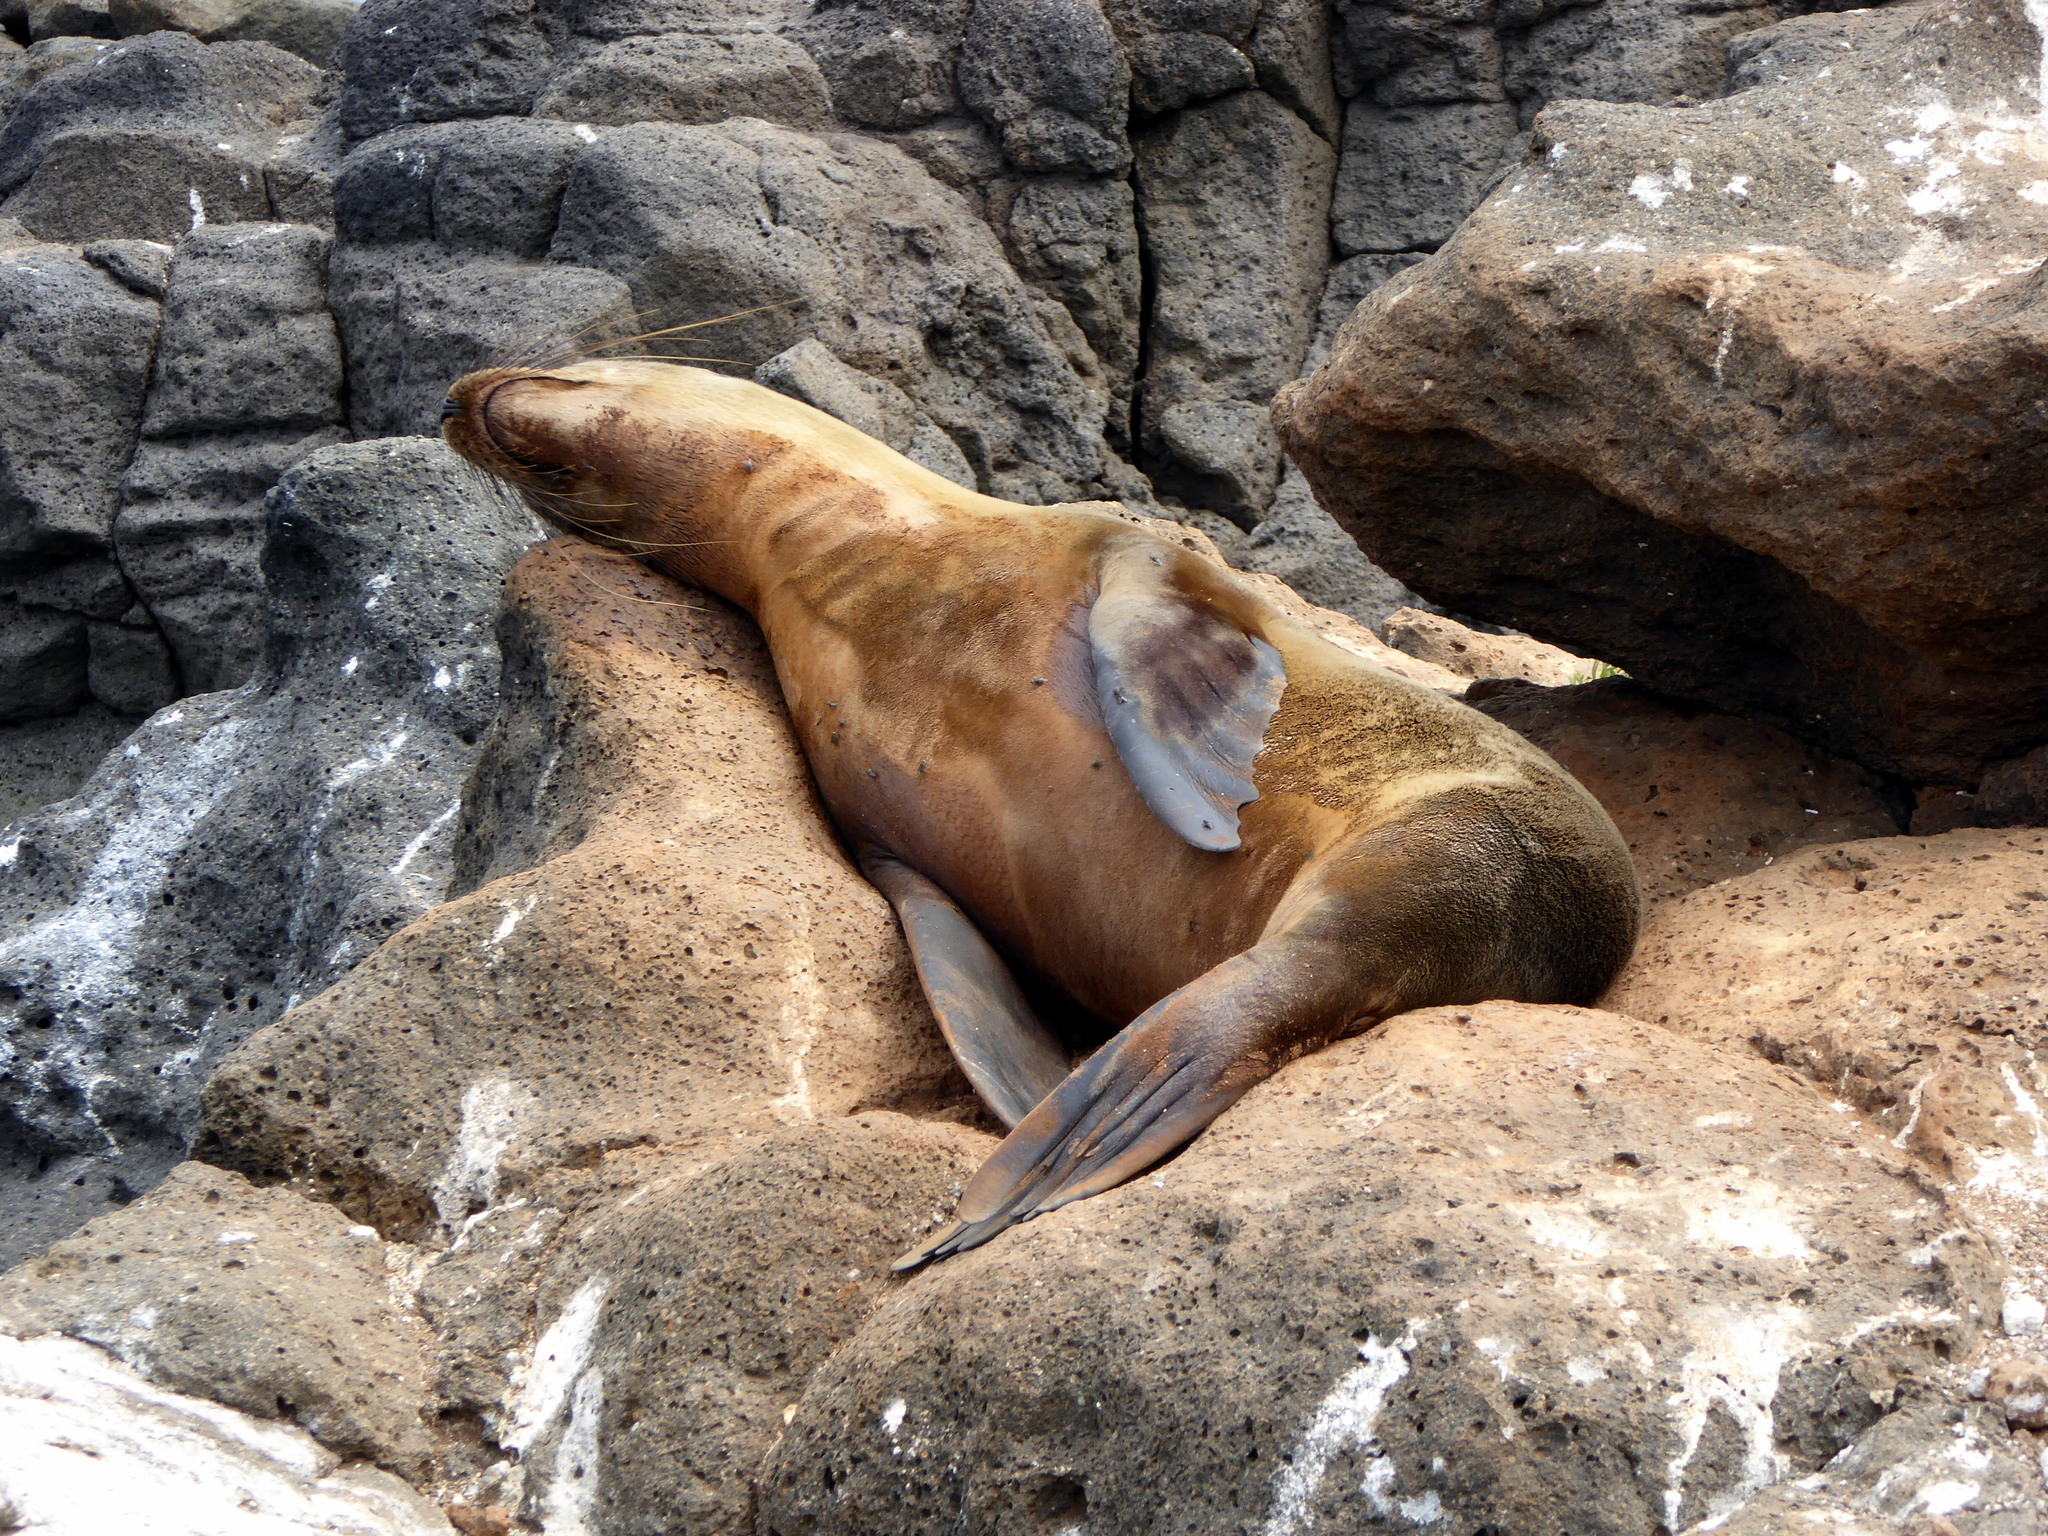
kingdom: Animalia
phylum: Chordata
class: Mammalia
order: Carnivora
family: Otariidae
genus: Zalophus
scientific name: Zalophus wollebaeki
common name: Galapagos sea lion
